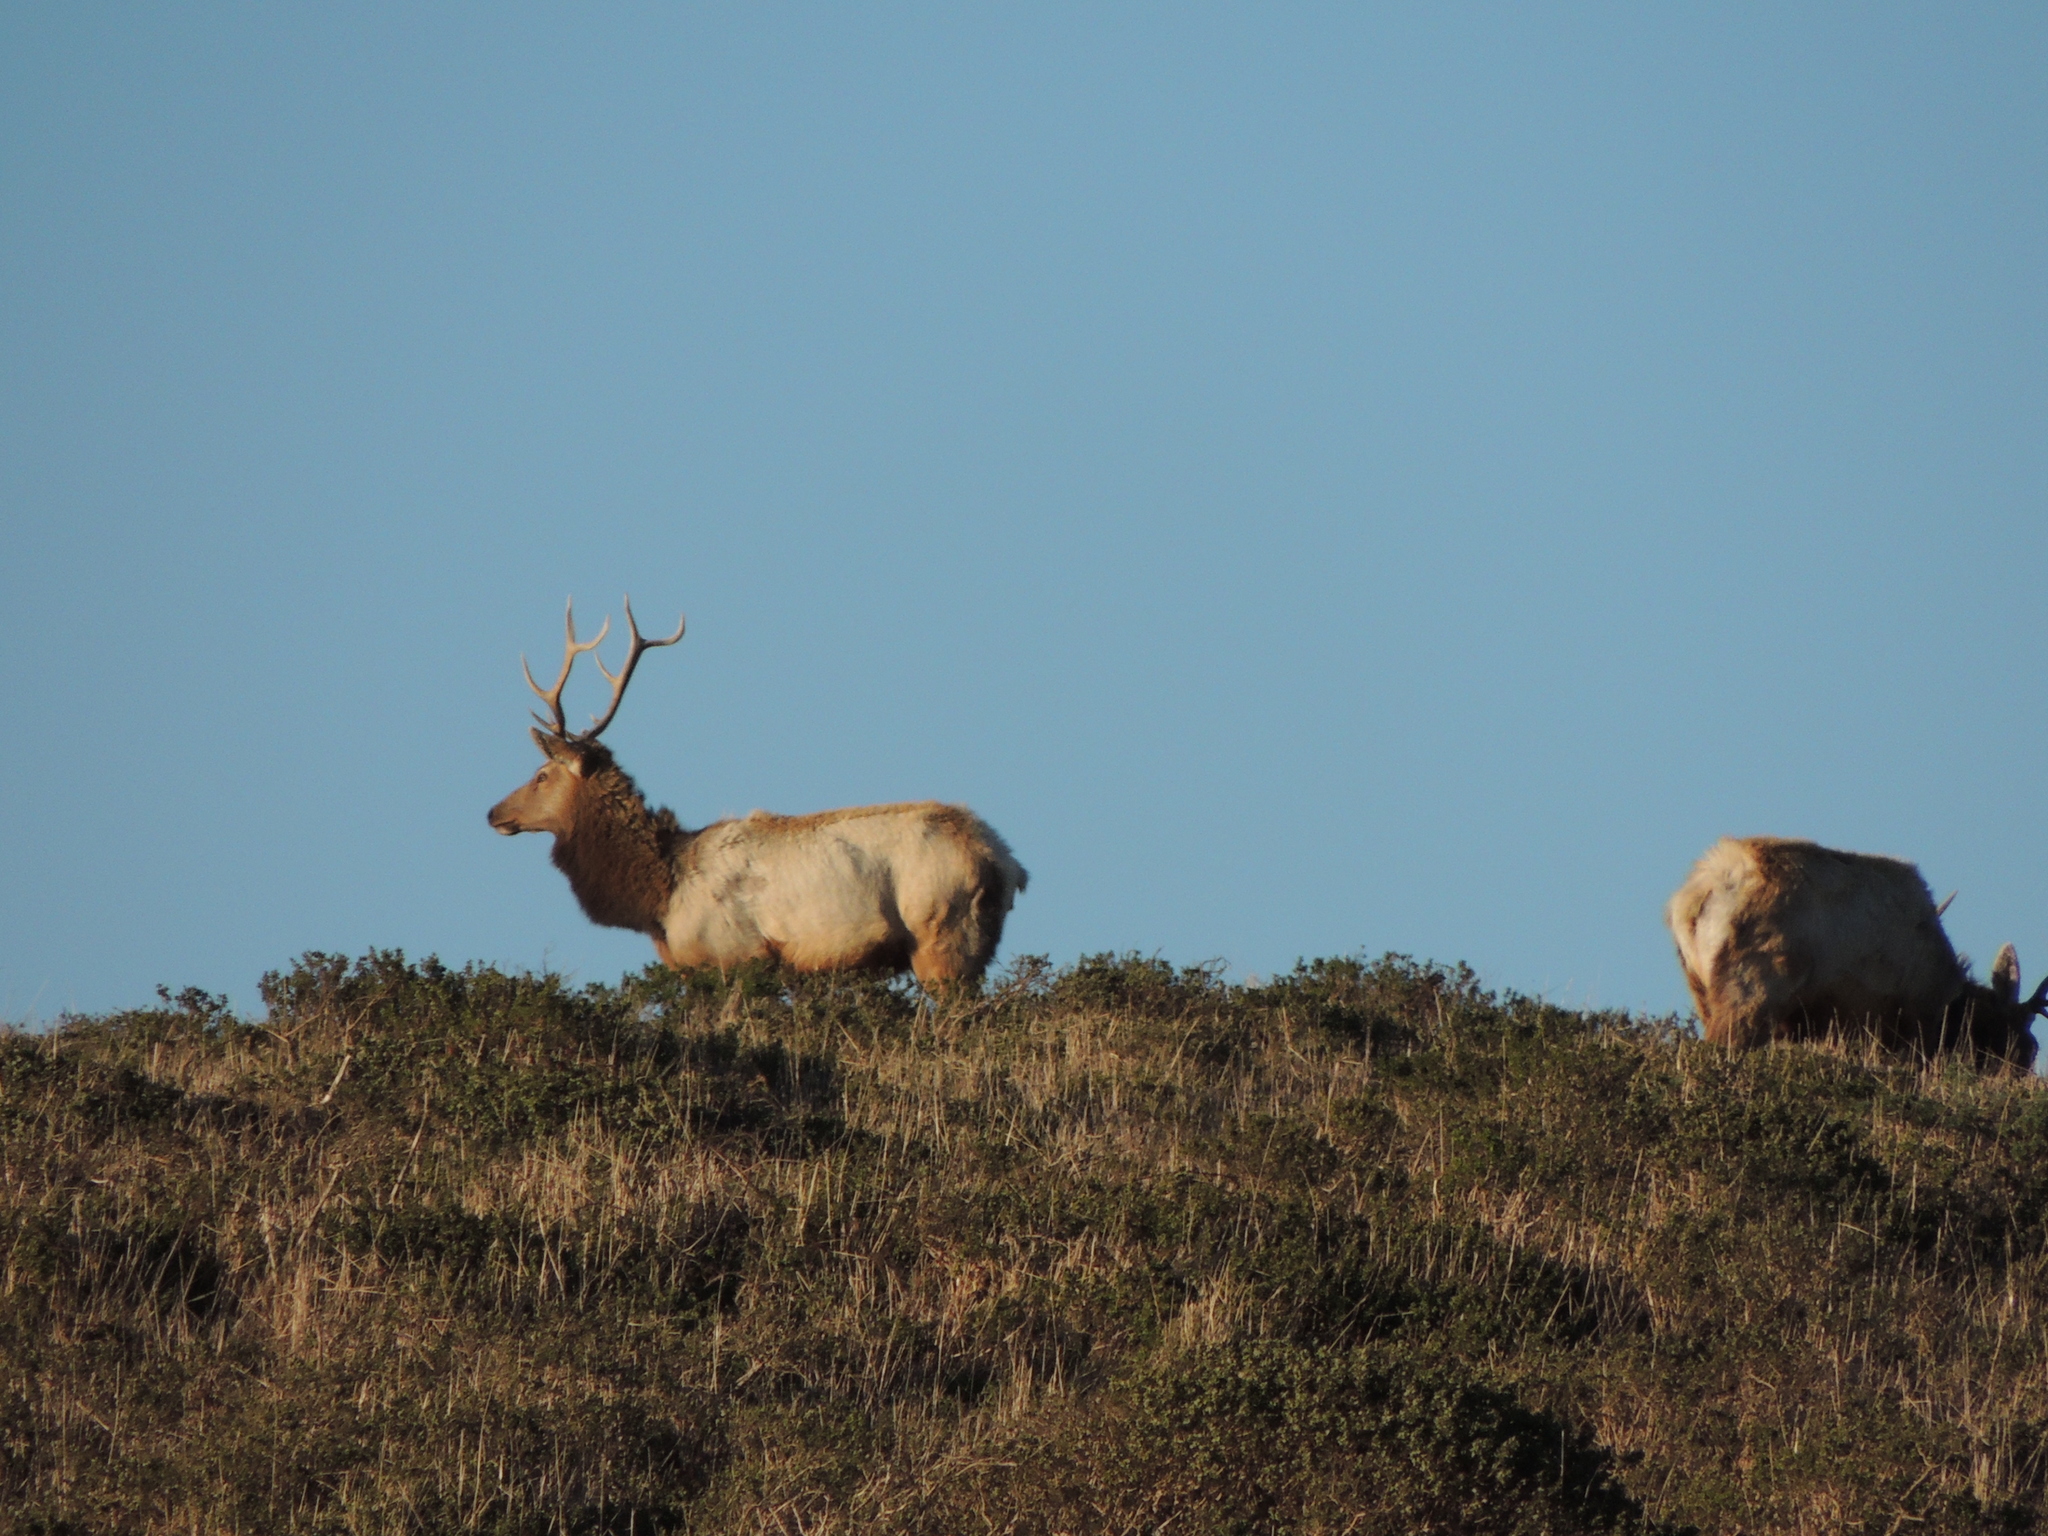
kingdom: Animalia
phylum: Chordata
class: Mammalia
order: Artiodactyla
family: Cervidae
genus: Cervus
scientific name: Cervus elaphus
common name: Red deer
